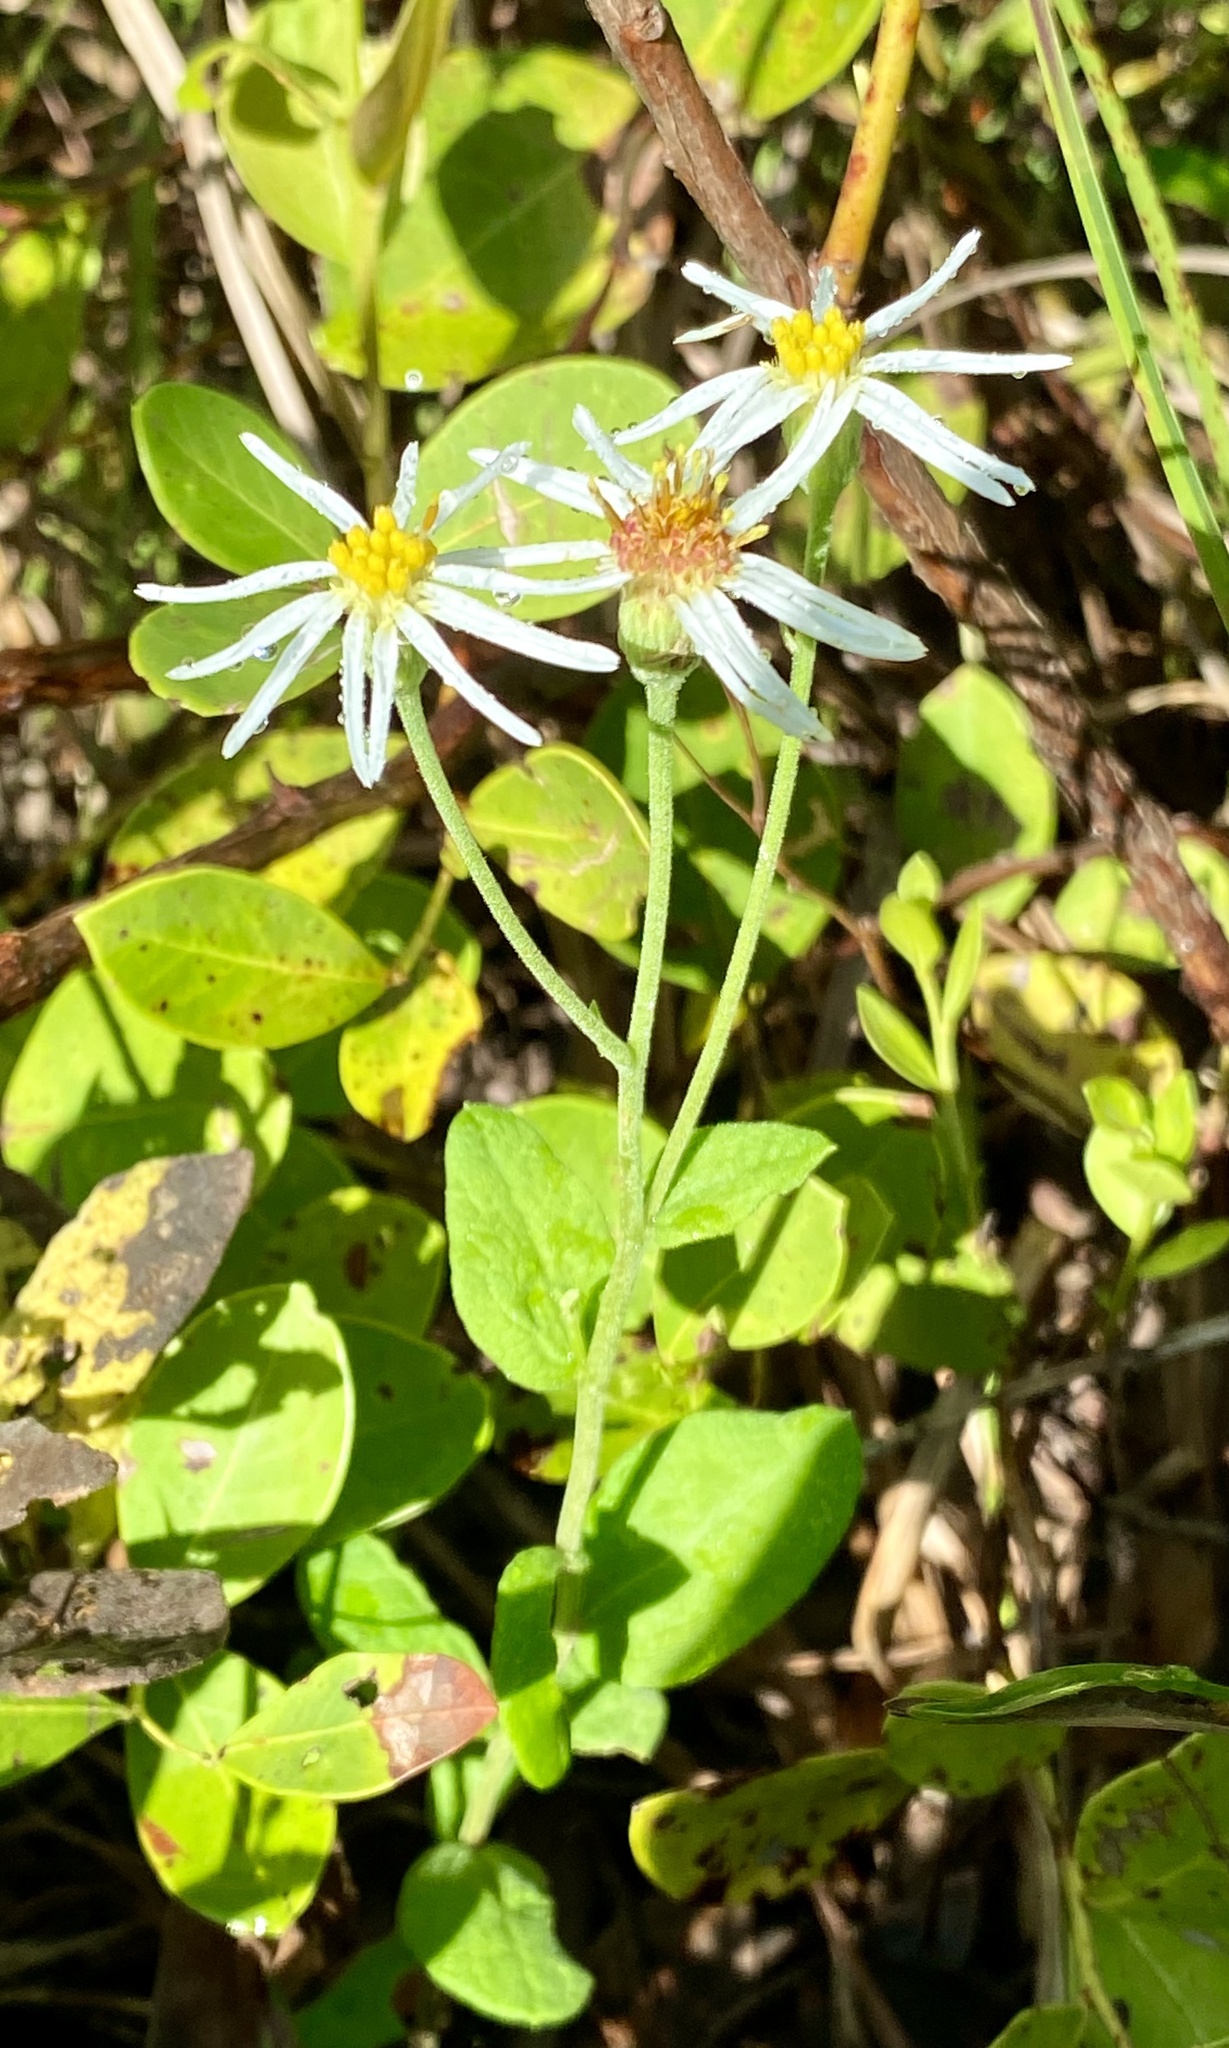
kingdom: Plantae
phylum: Tracheophyta
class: Magnoliopsida
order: Asterales
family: Asteraceae
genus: Oclemena
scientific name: Oclemena reticulata
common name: Pinebarren aster
